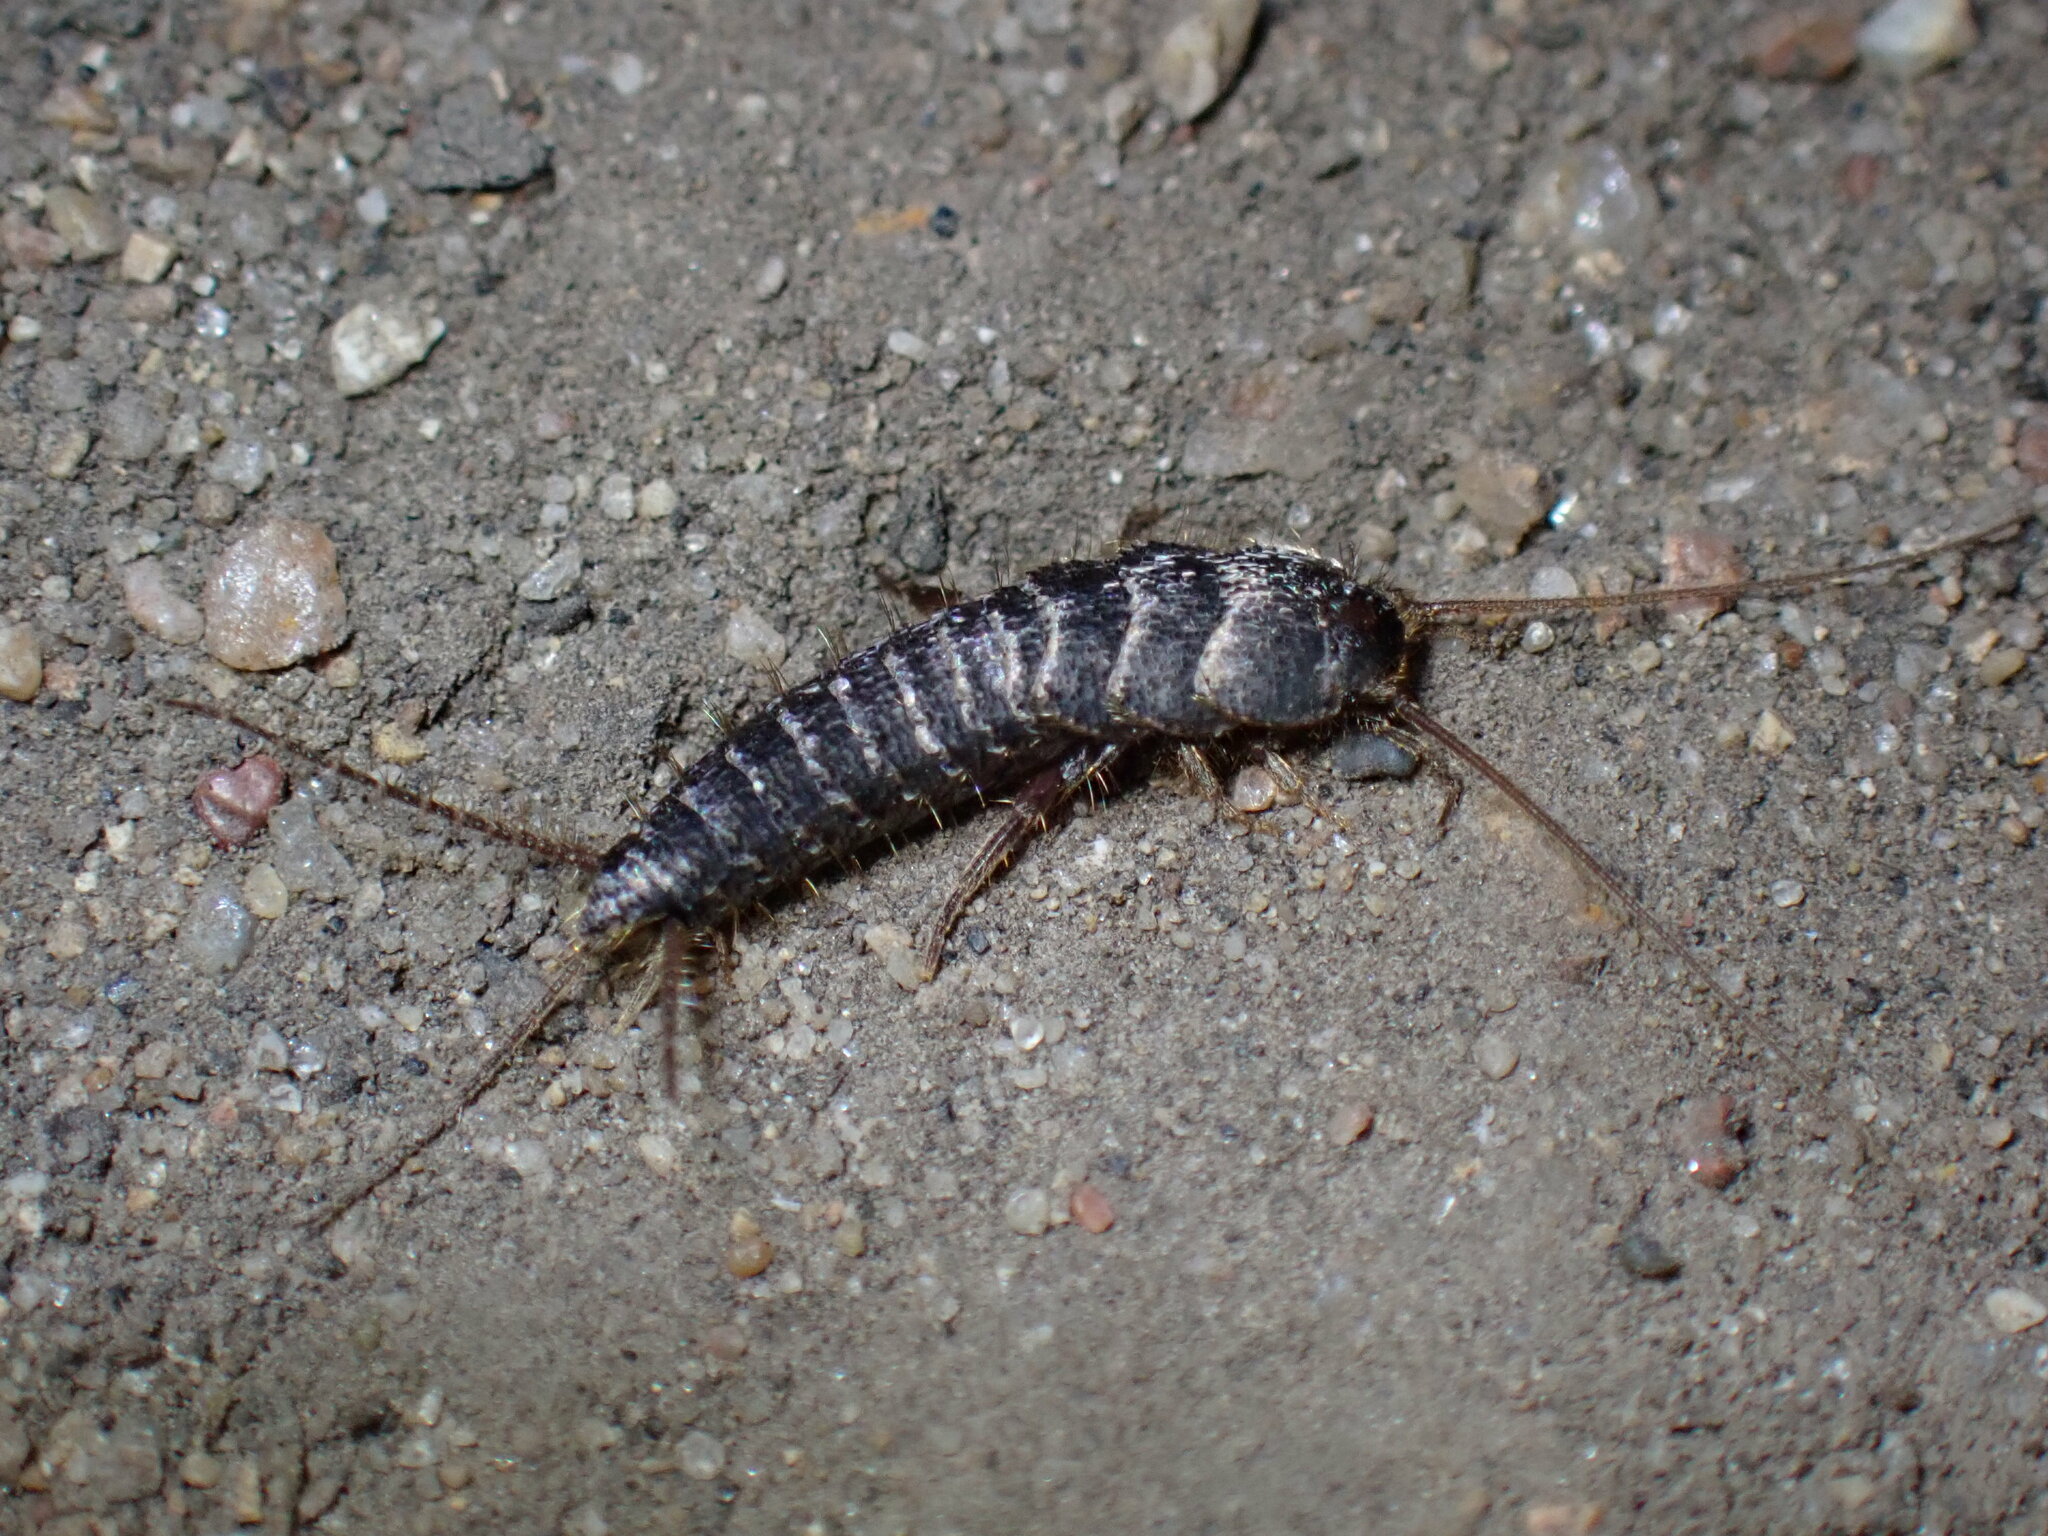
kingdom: Animalia
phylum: Arthropoda
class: Insecta
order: Zygentoma
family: Lepismatidae
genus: Allacrotelsa
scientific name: Allacrotelsa spinulata
